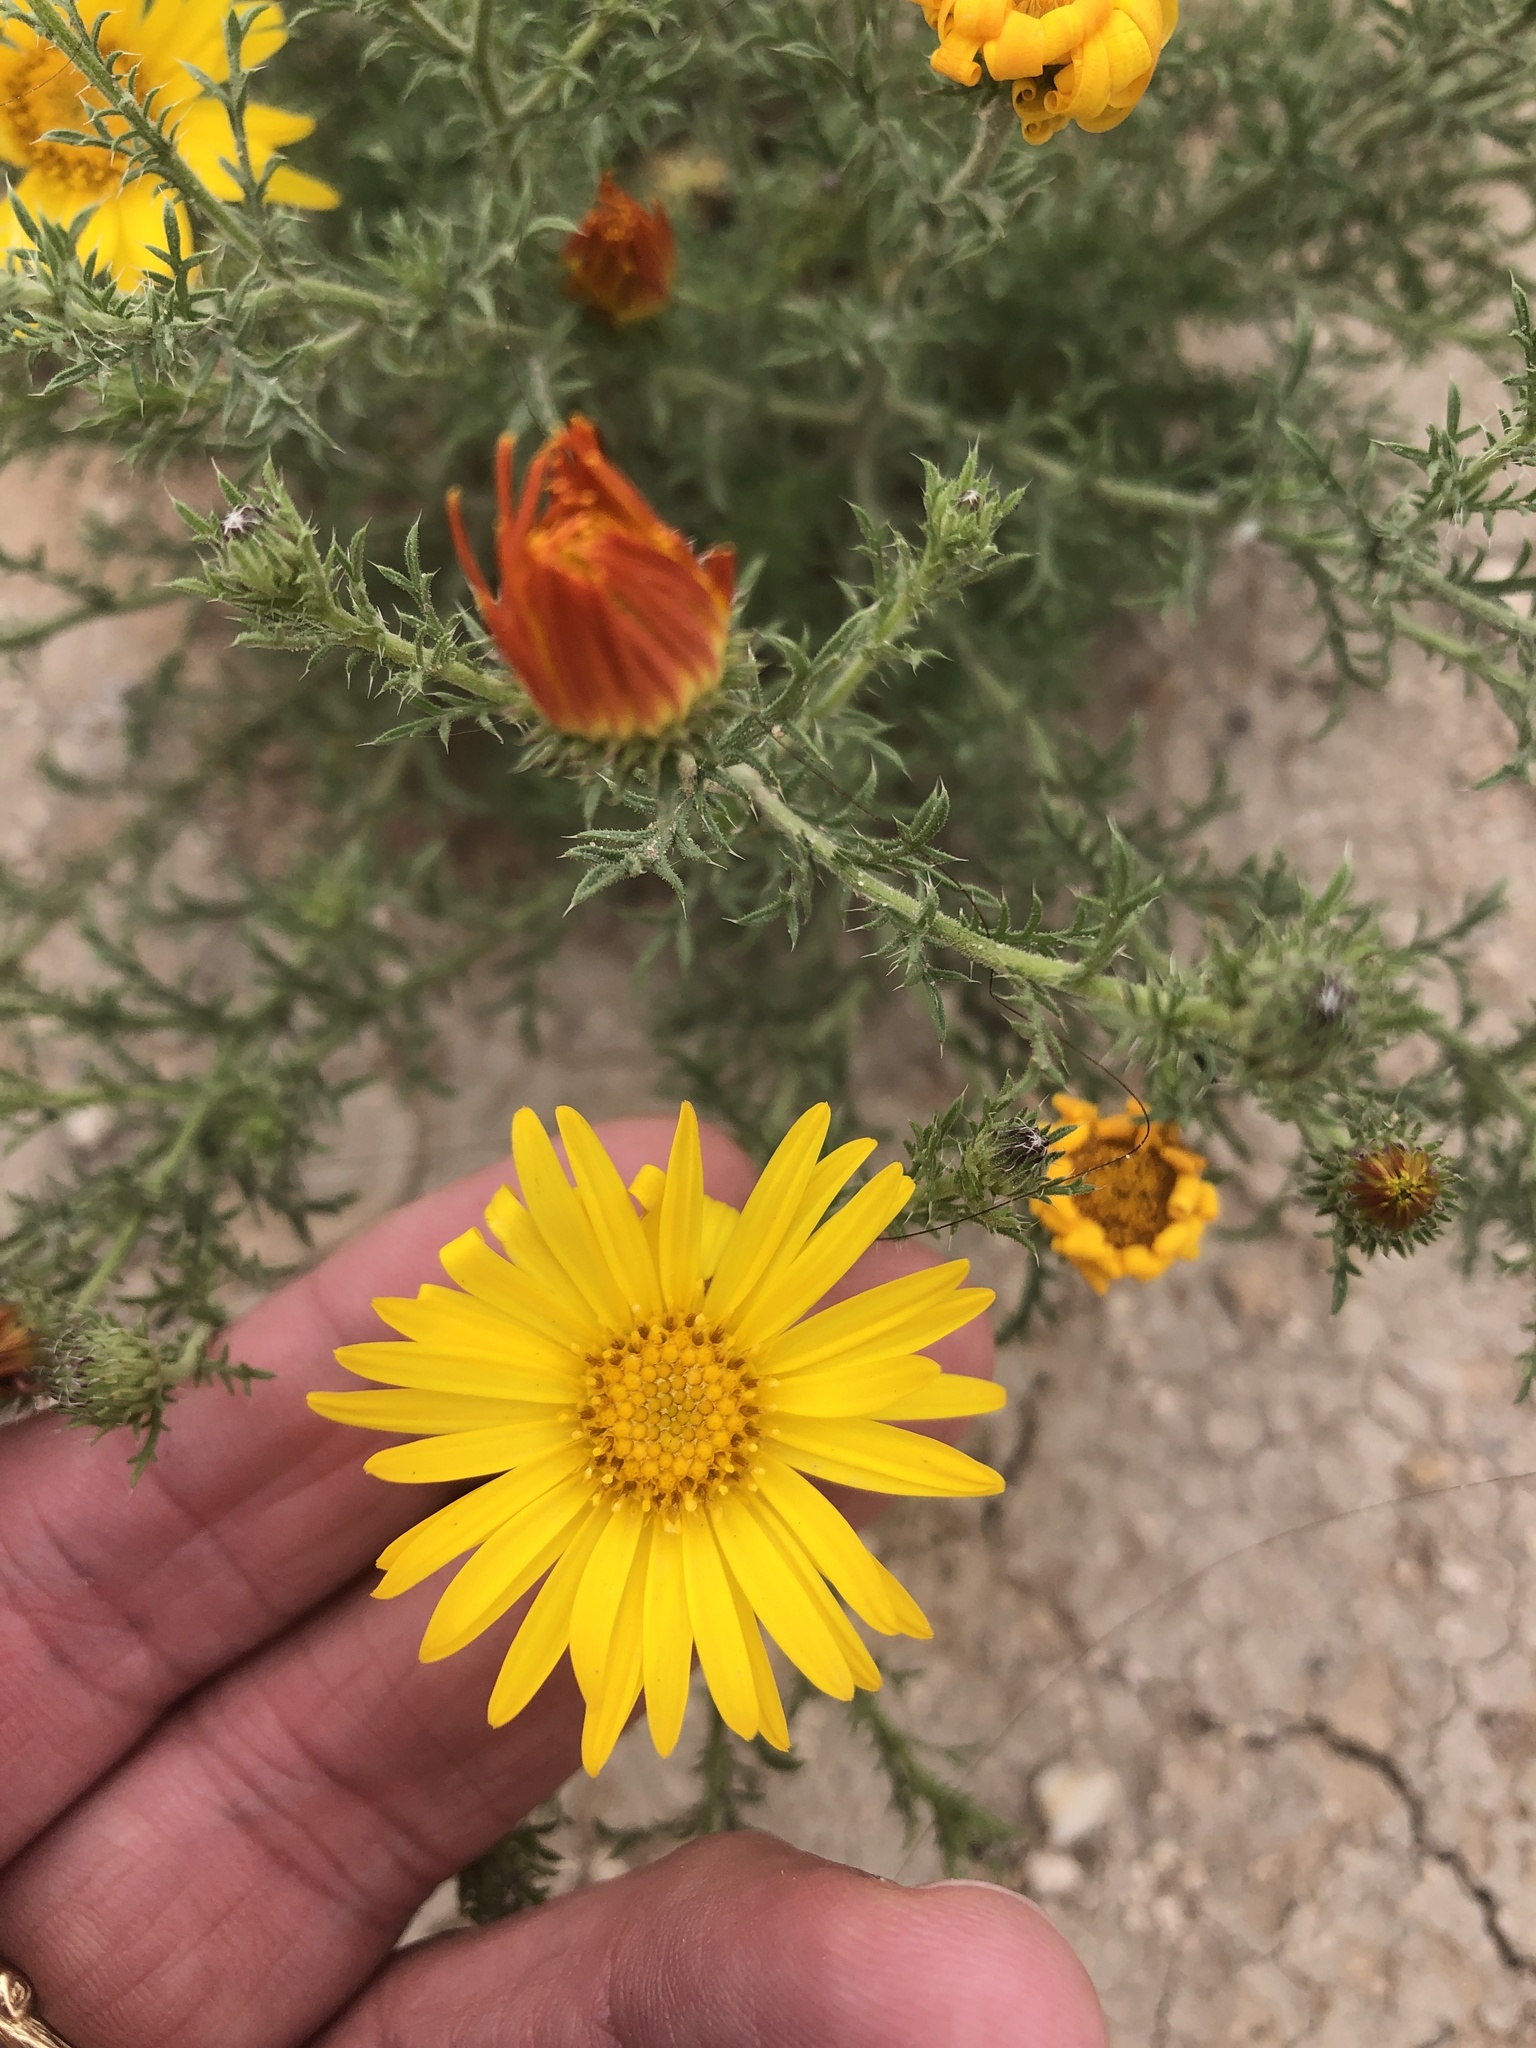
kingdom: Plantae
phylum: Tracheophyta
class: Magnoliopsida
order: Asterales
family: Asteraceae
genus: Xanthisma
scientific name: Xanthisma spinulosum
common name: Spiny goldenweed
